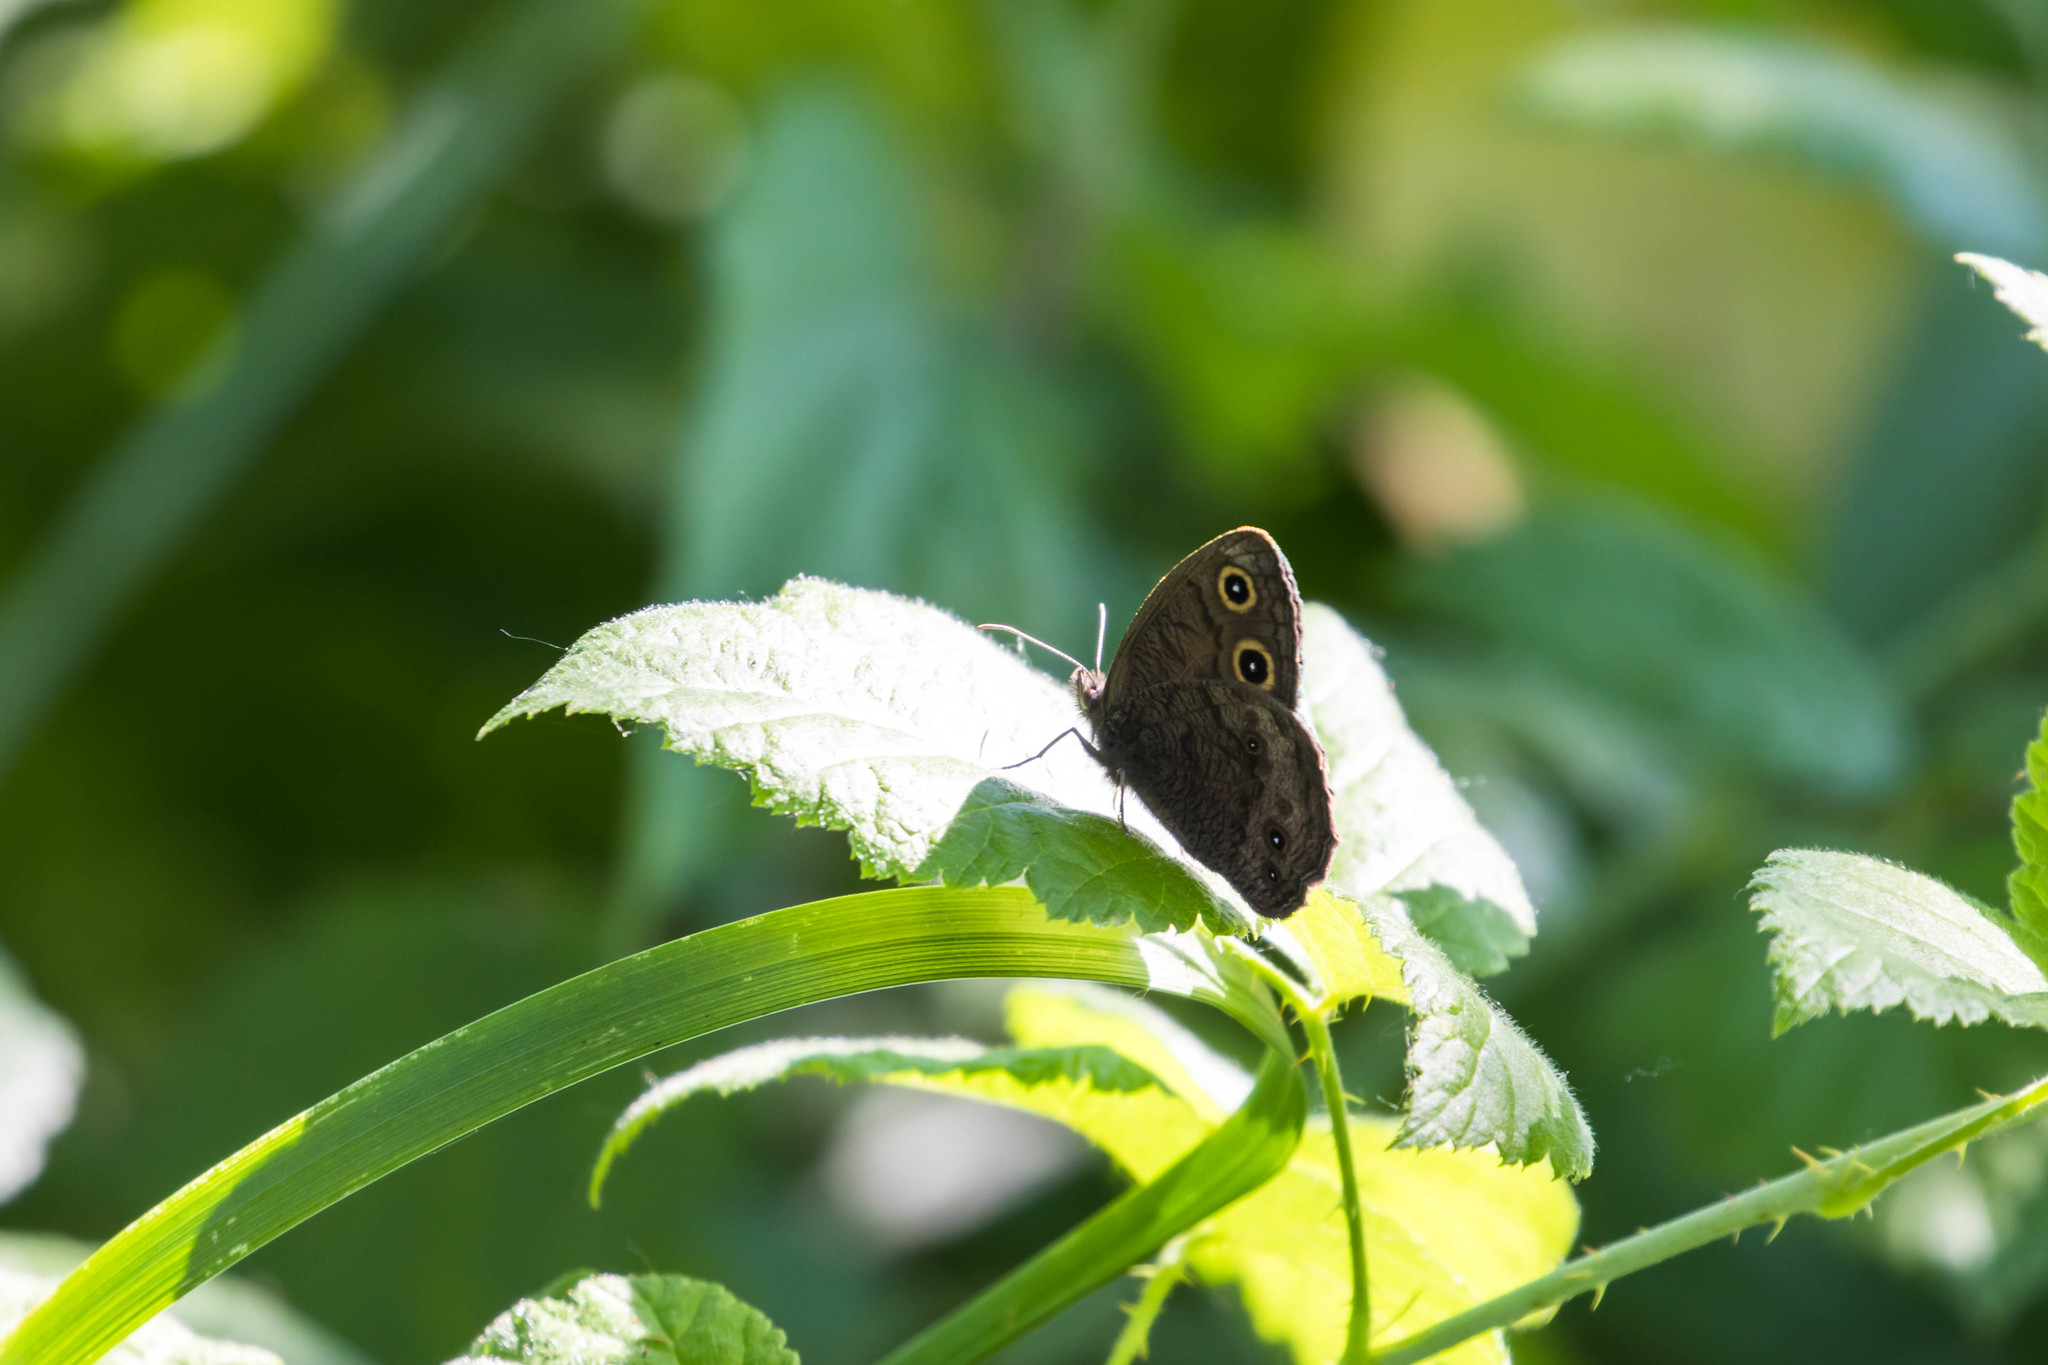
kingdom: Animalia
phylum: Arthropoda
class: Insecta
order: Lepidoptera
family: Nymphalidae
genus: Cercyonis
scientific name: Cercyonis pegala
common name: Common wood-nymph
